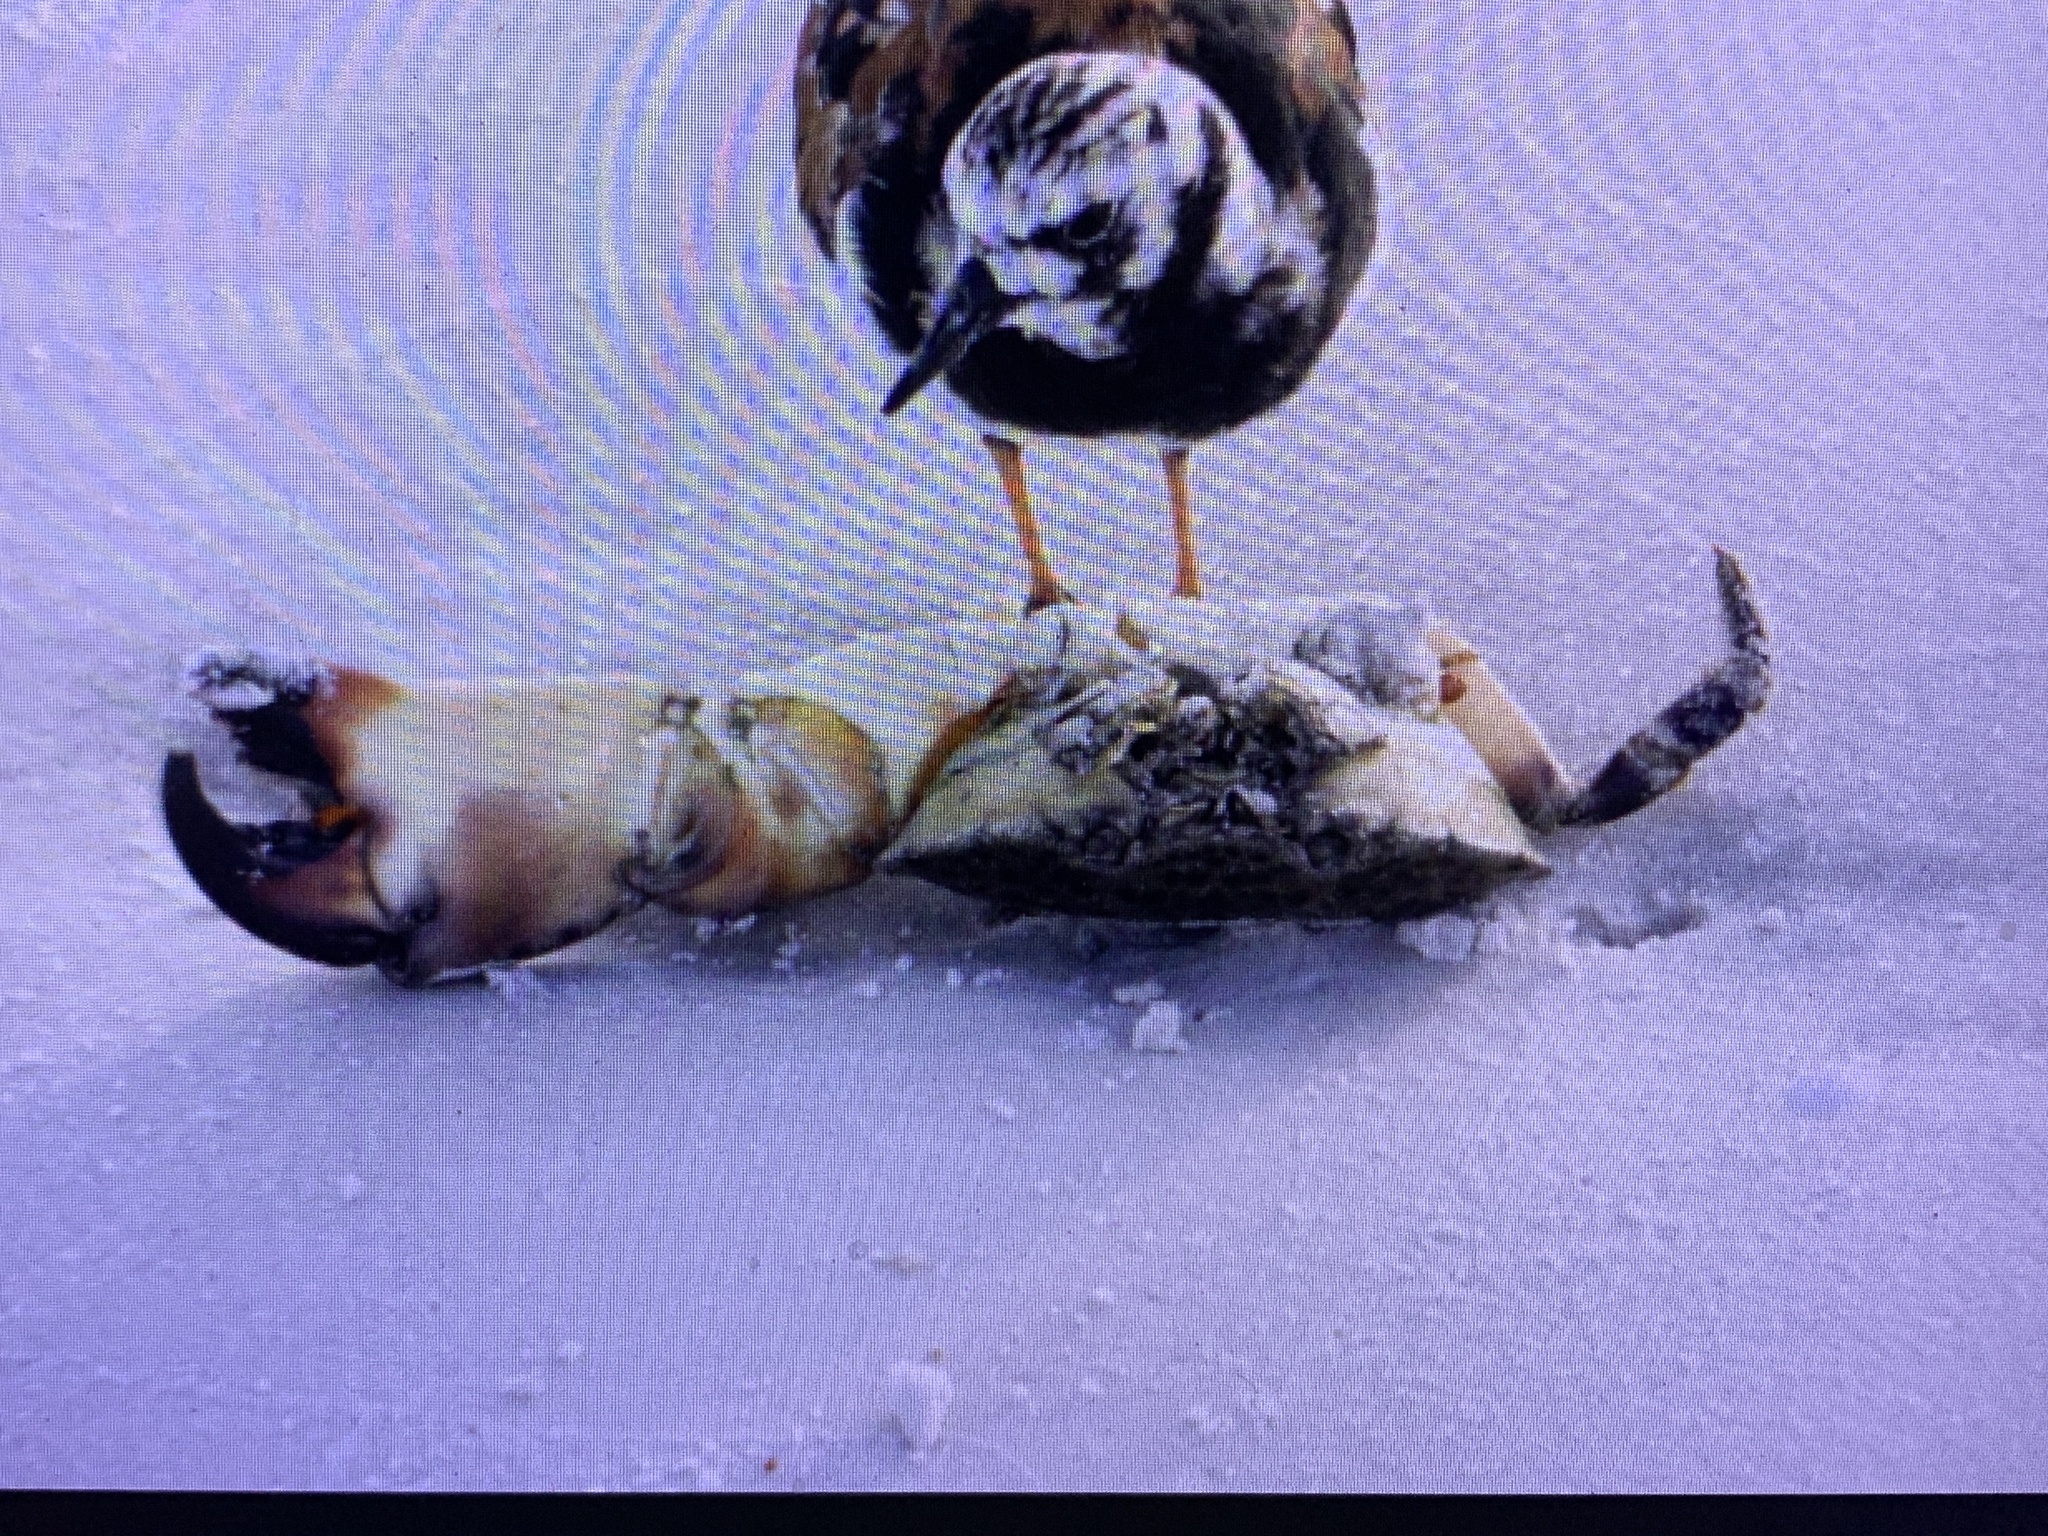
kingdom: Animalia
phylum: Arthropoda
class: Malacostraca
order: Decapoda
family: Menippidae
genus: Menippe
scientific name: Menippe mercenaria
